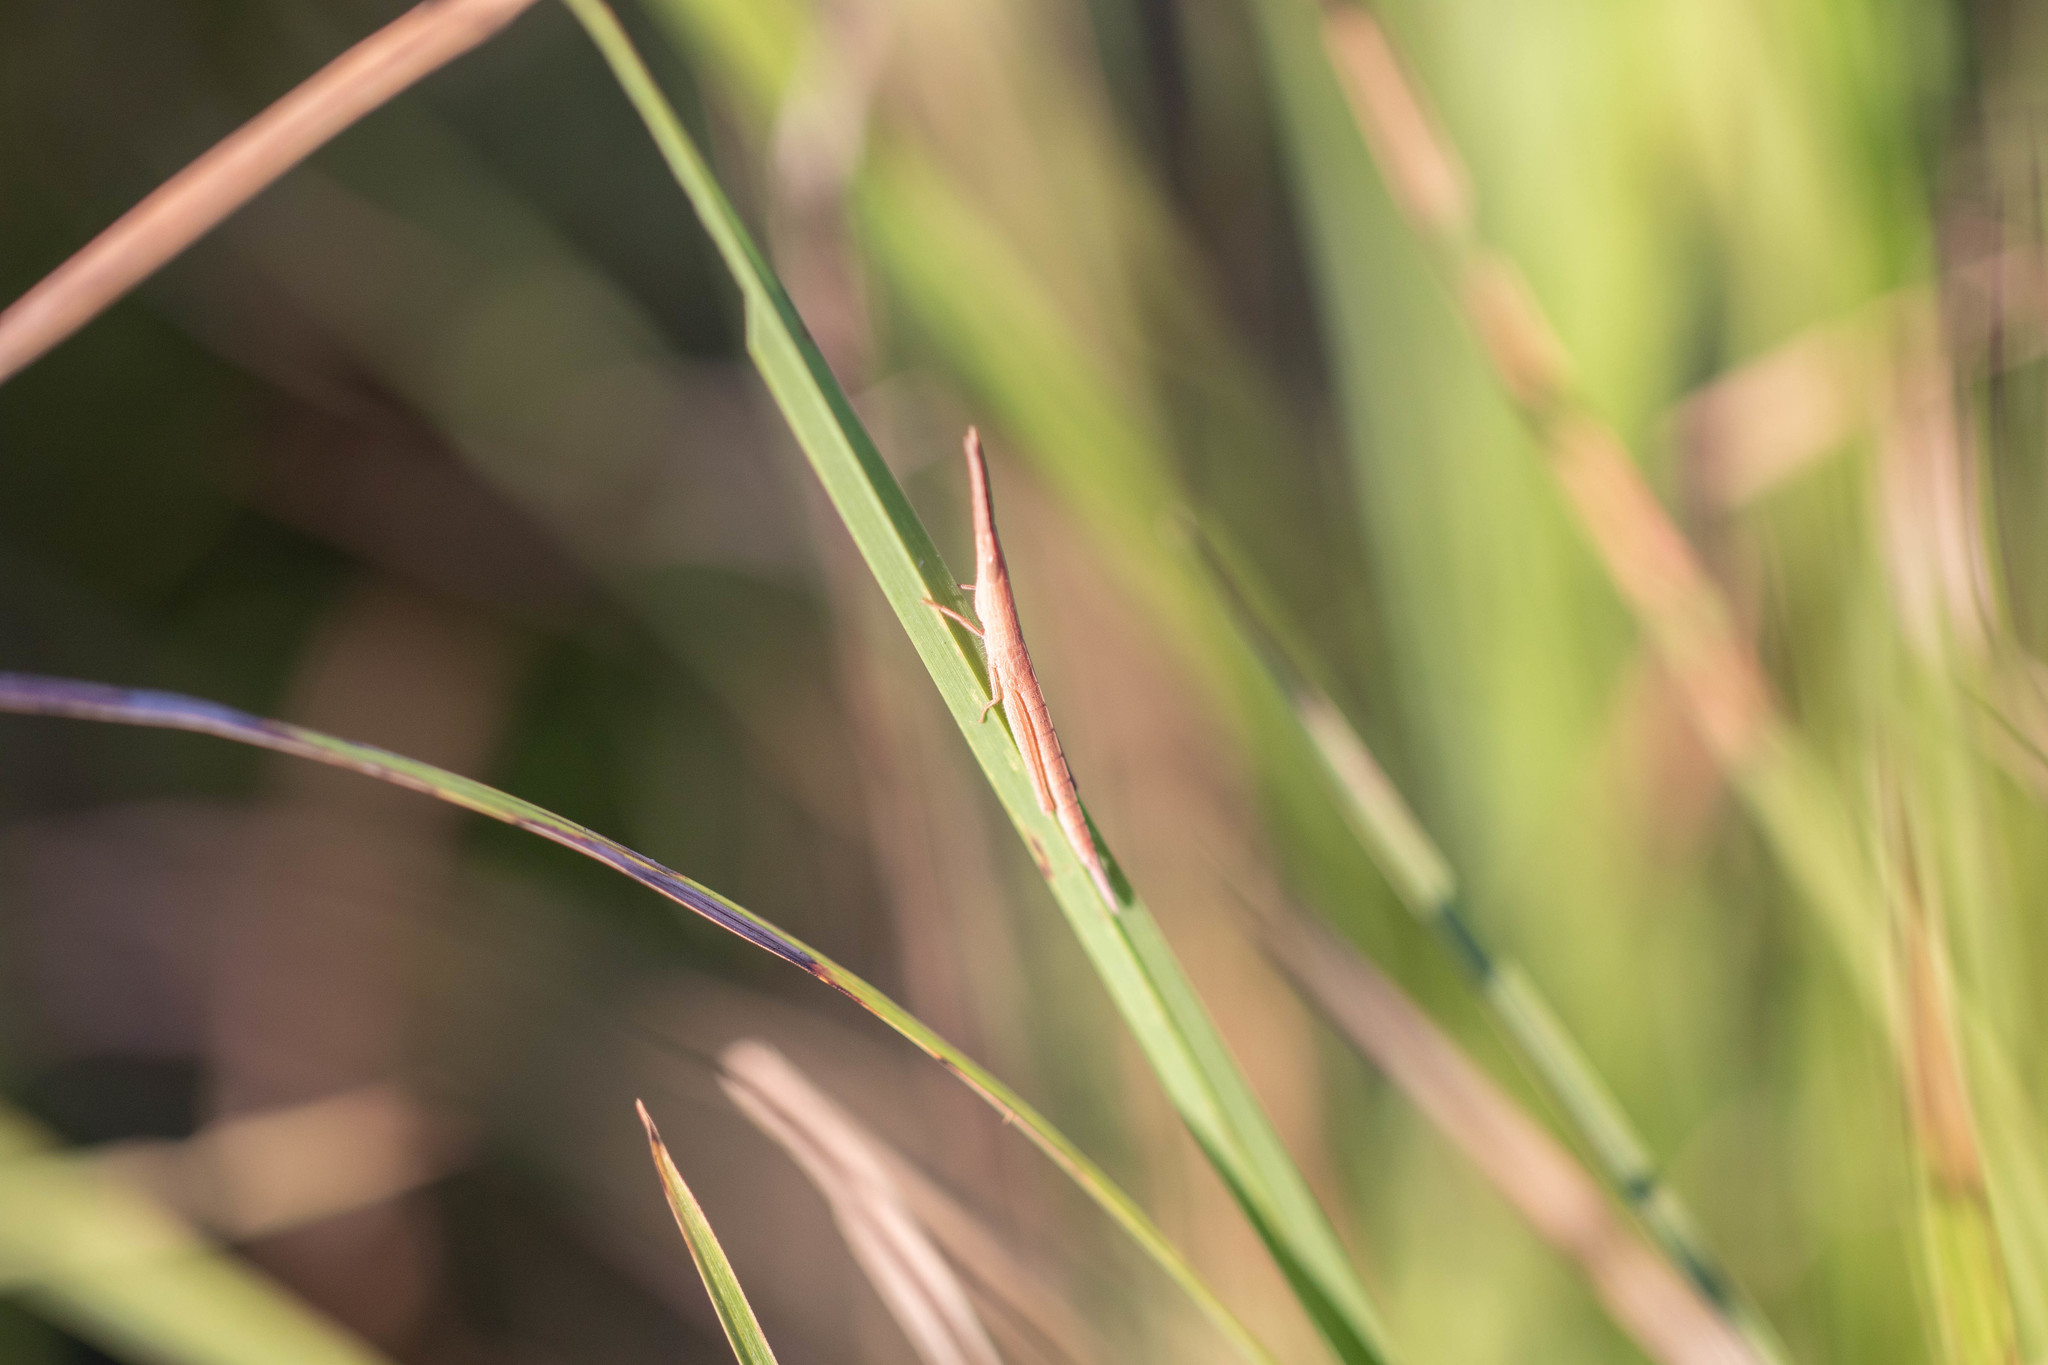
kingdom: Animalia
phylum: Arthropoda
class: Insecta
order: Orthoptera
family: Acrididae
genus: Achurum
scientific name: Achurum sumichrasti
